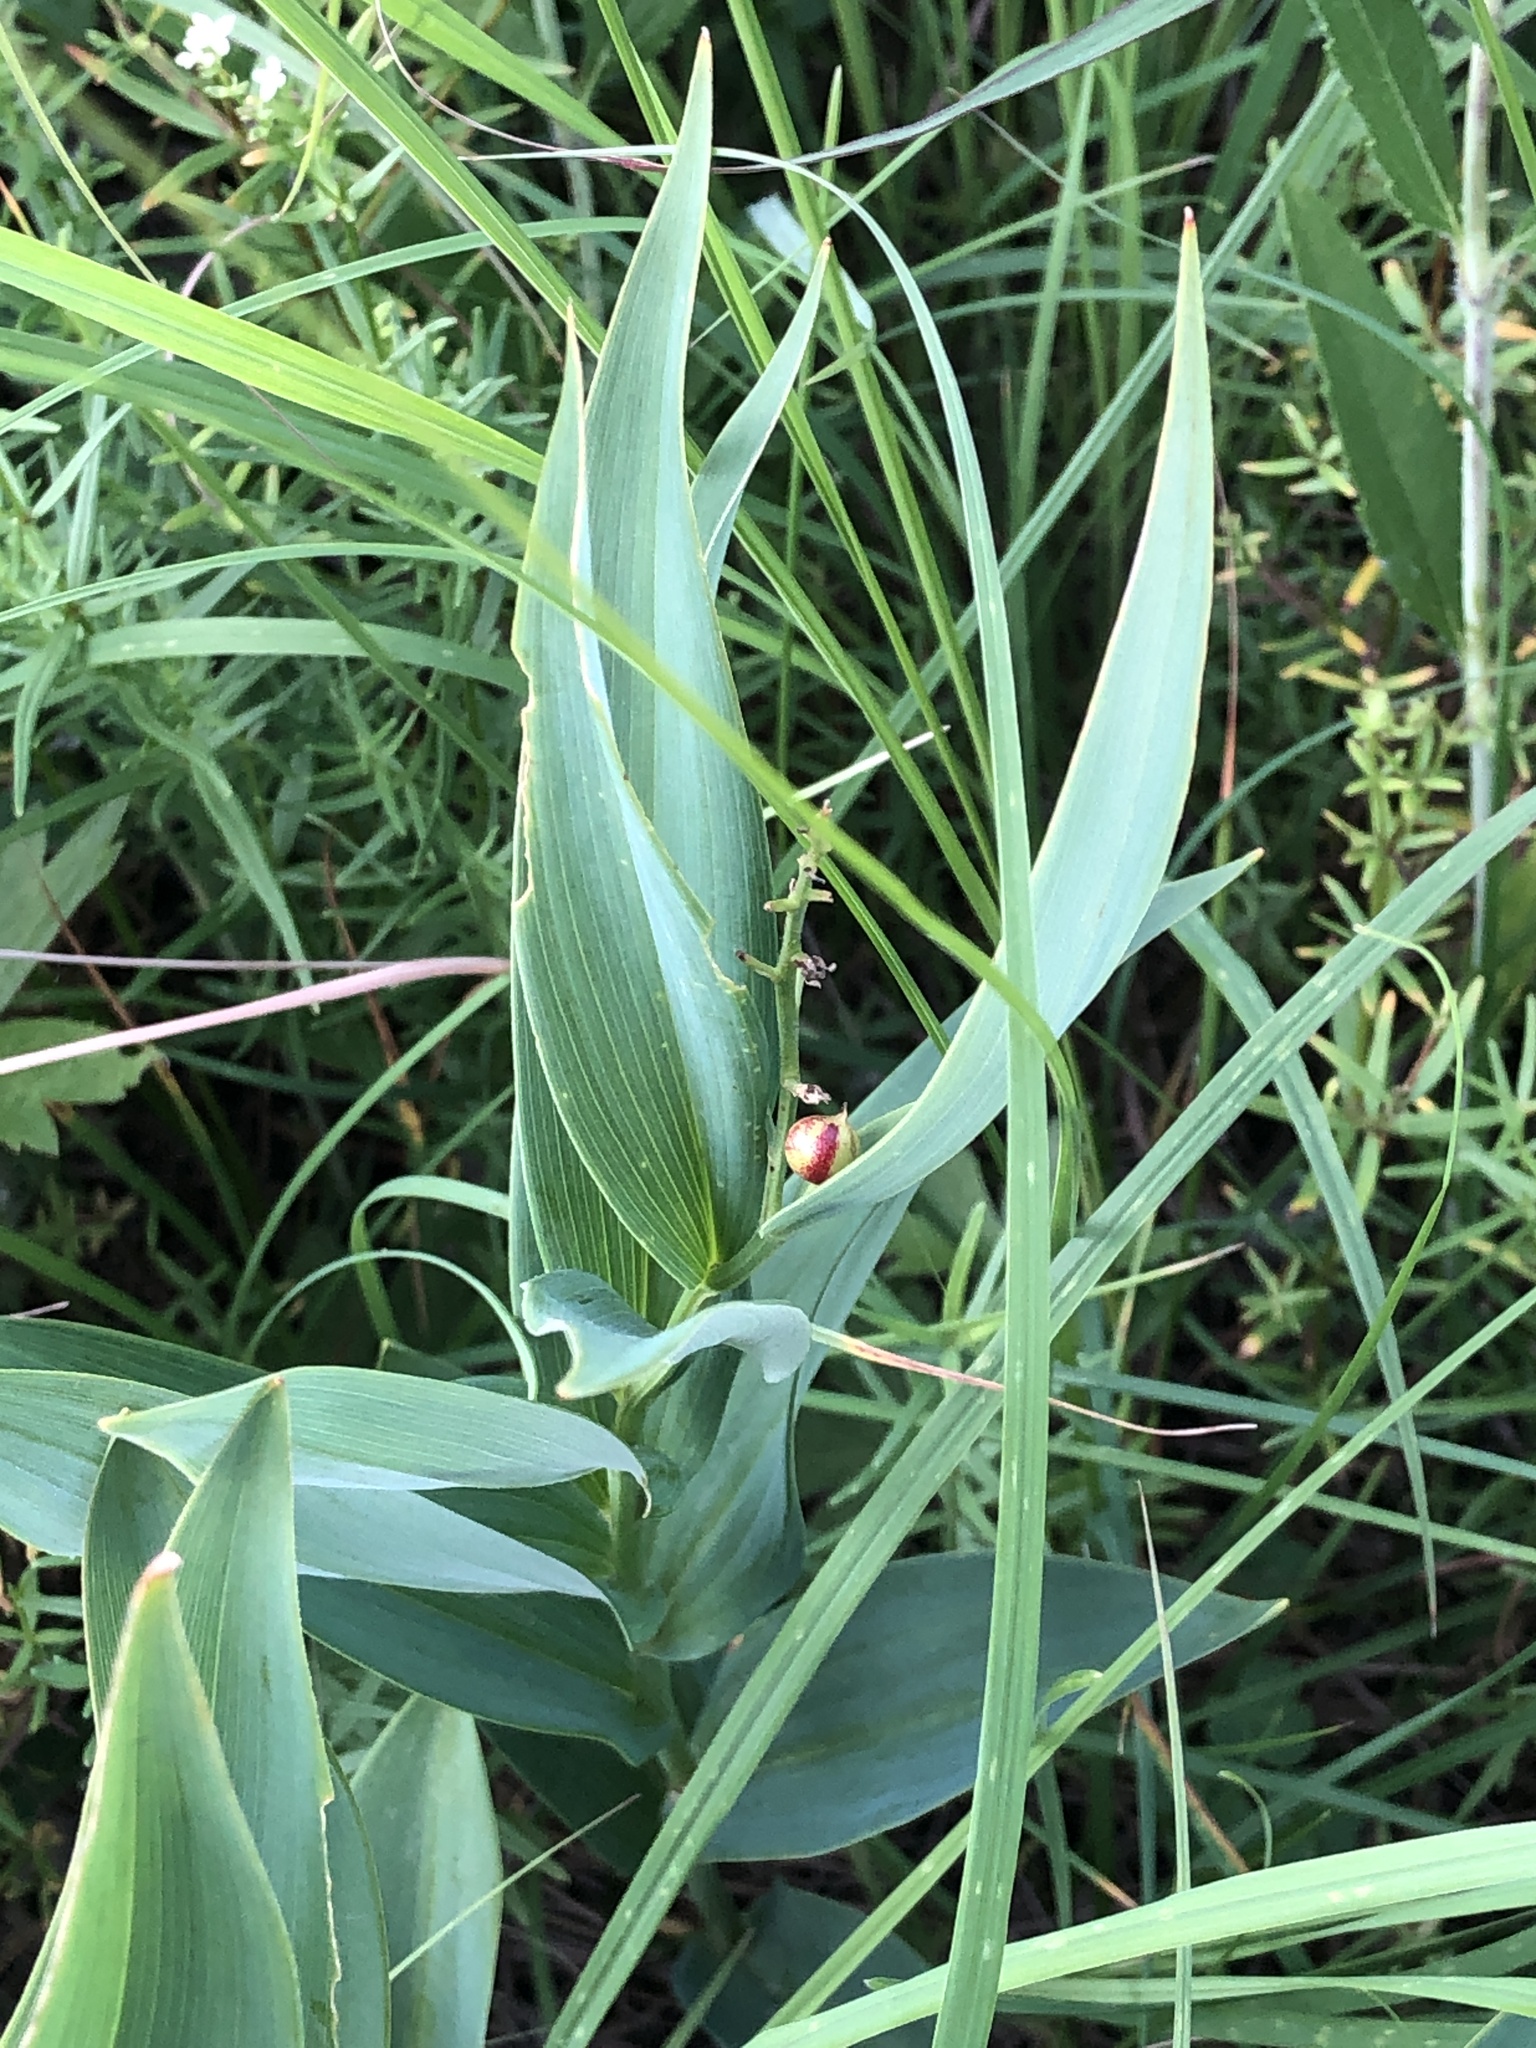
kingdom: Plantae
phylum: Tracheophyta
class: Liliopsida
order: Asparagales
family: Asparagaceae
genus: Maianthemum
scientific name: Maianthemum stellatum
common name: Little false solomon's seal
